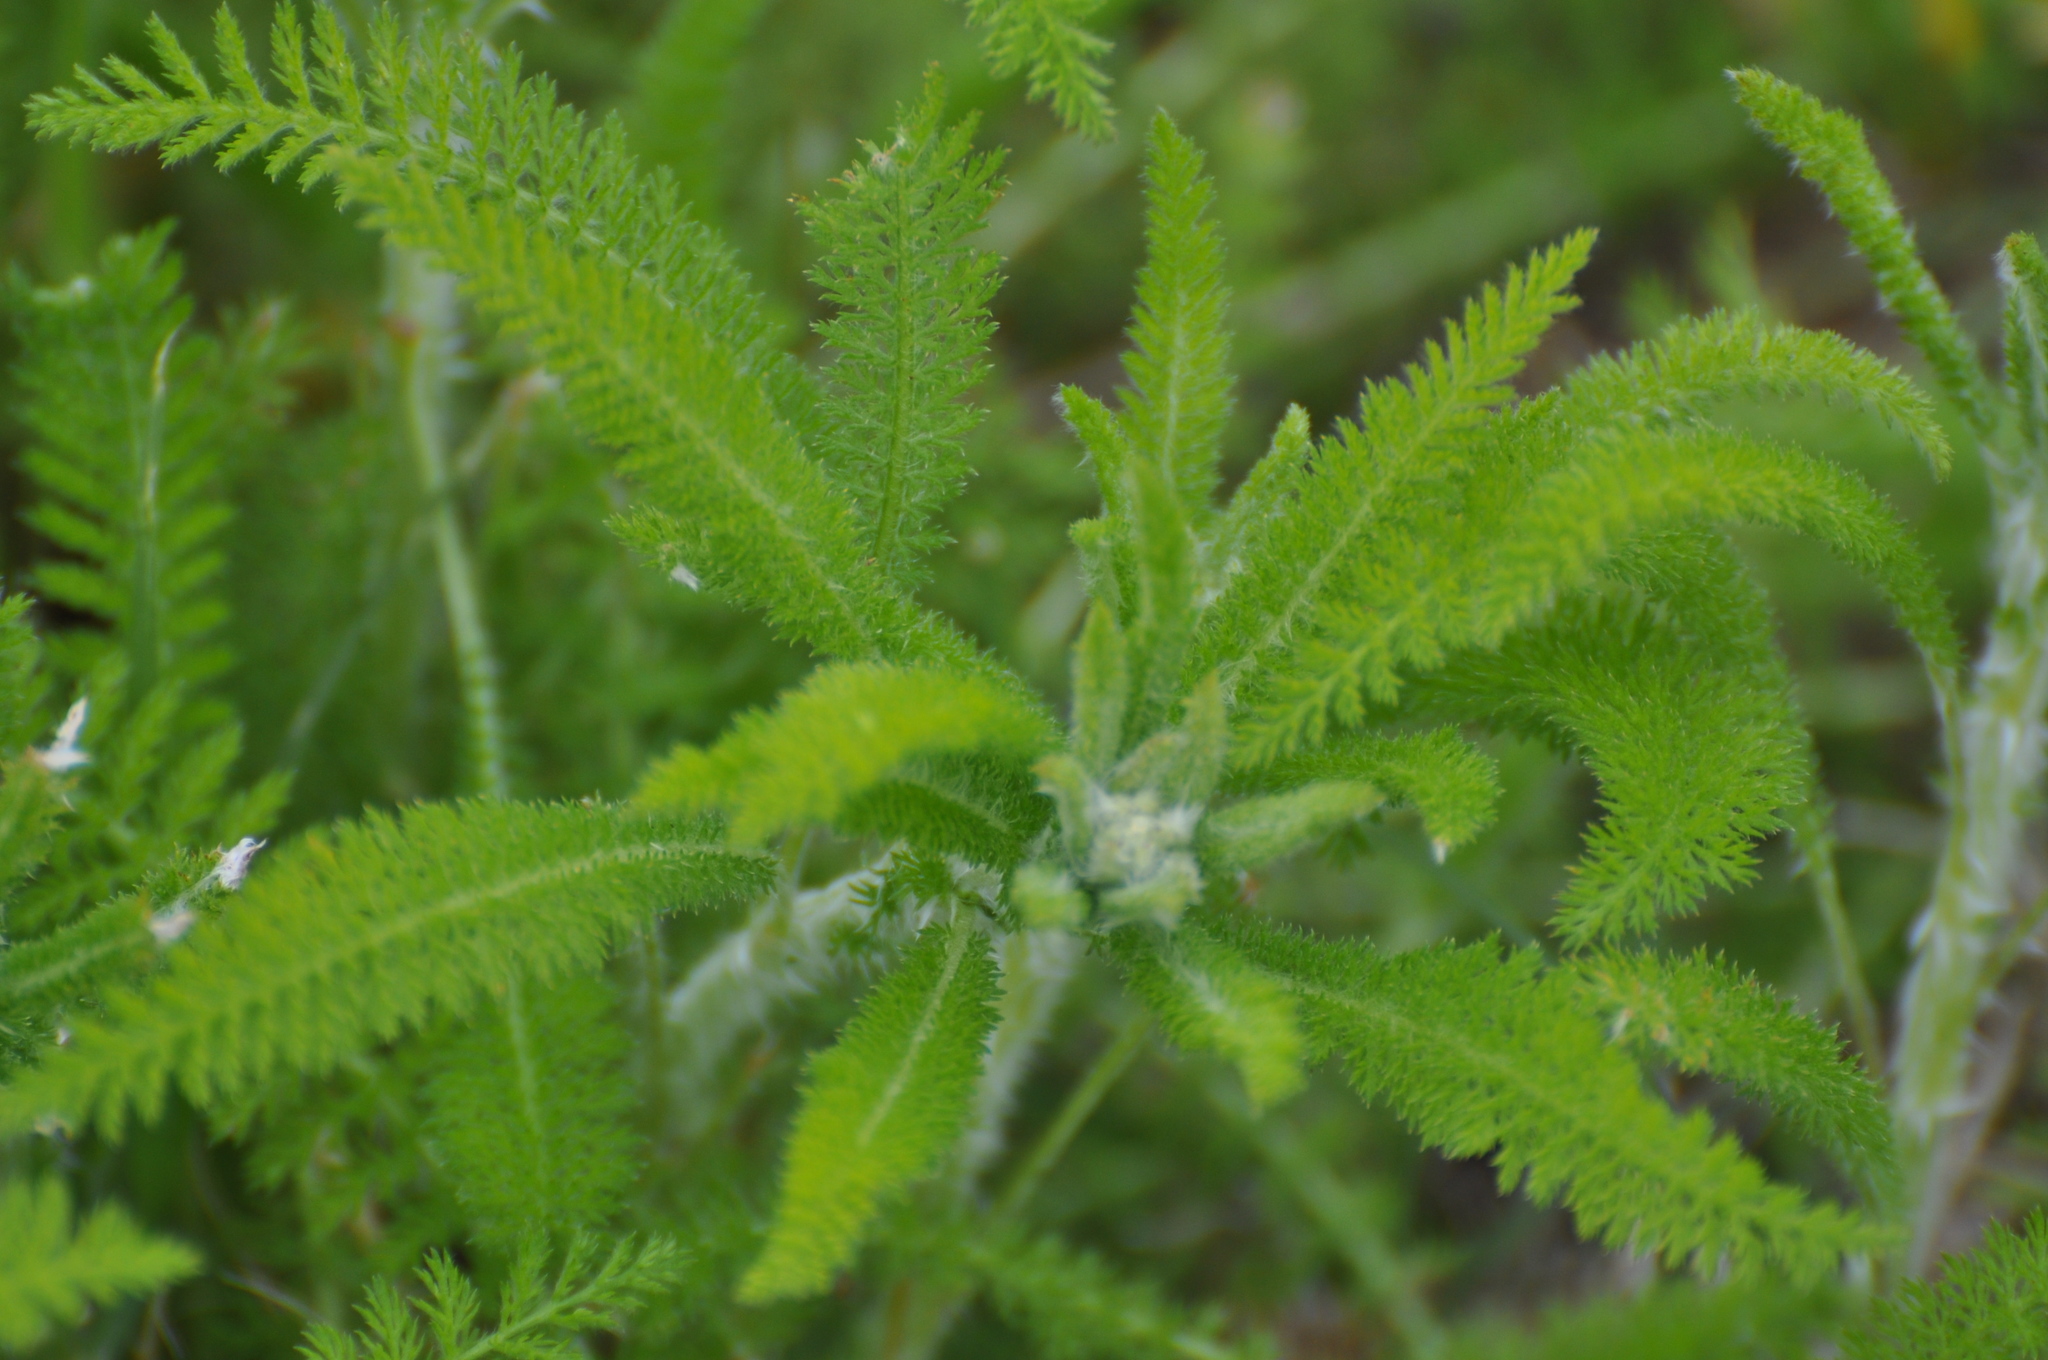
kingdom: Plantae
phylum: Tracheophyta
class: Magnoliopsida
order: Asterales
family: Asteraceae
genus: Achillea
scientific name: Achillea millefolium
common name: Yarrow
